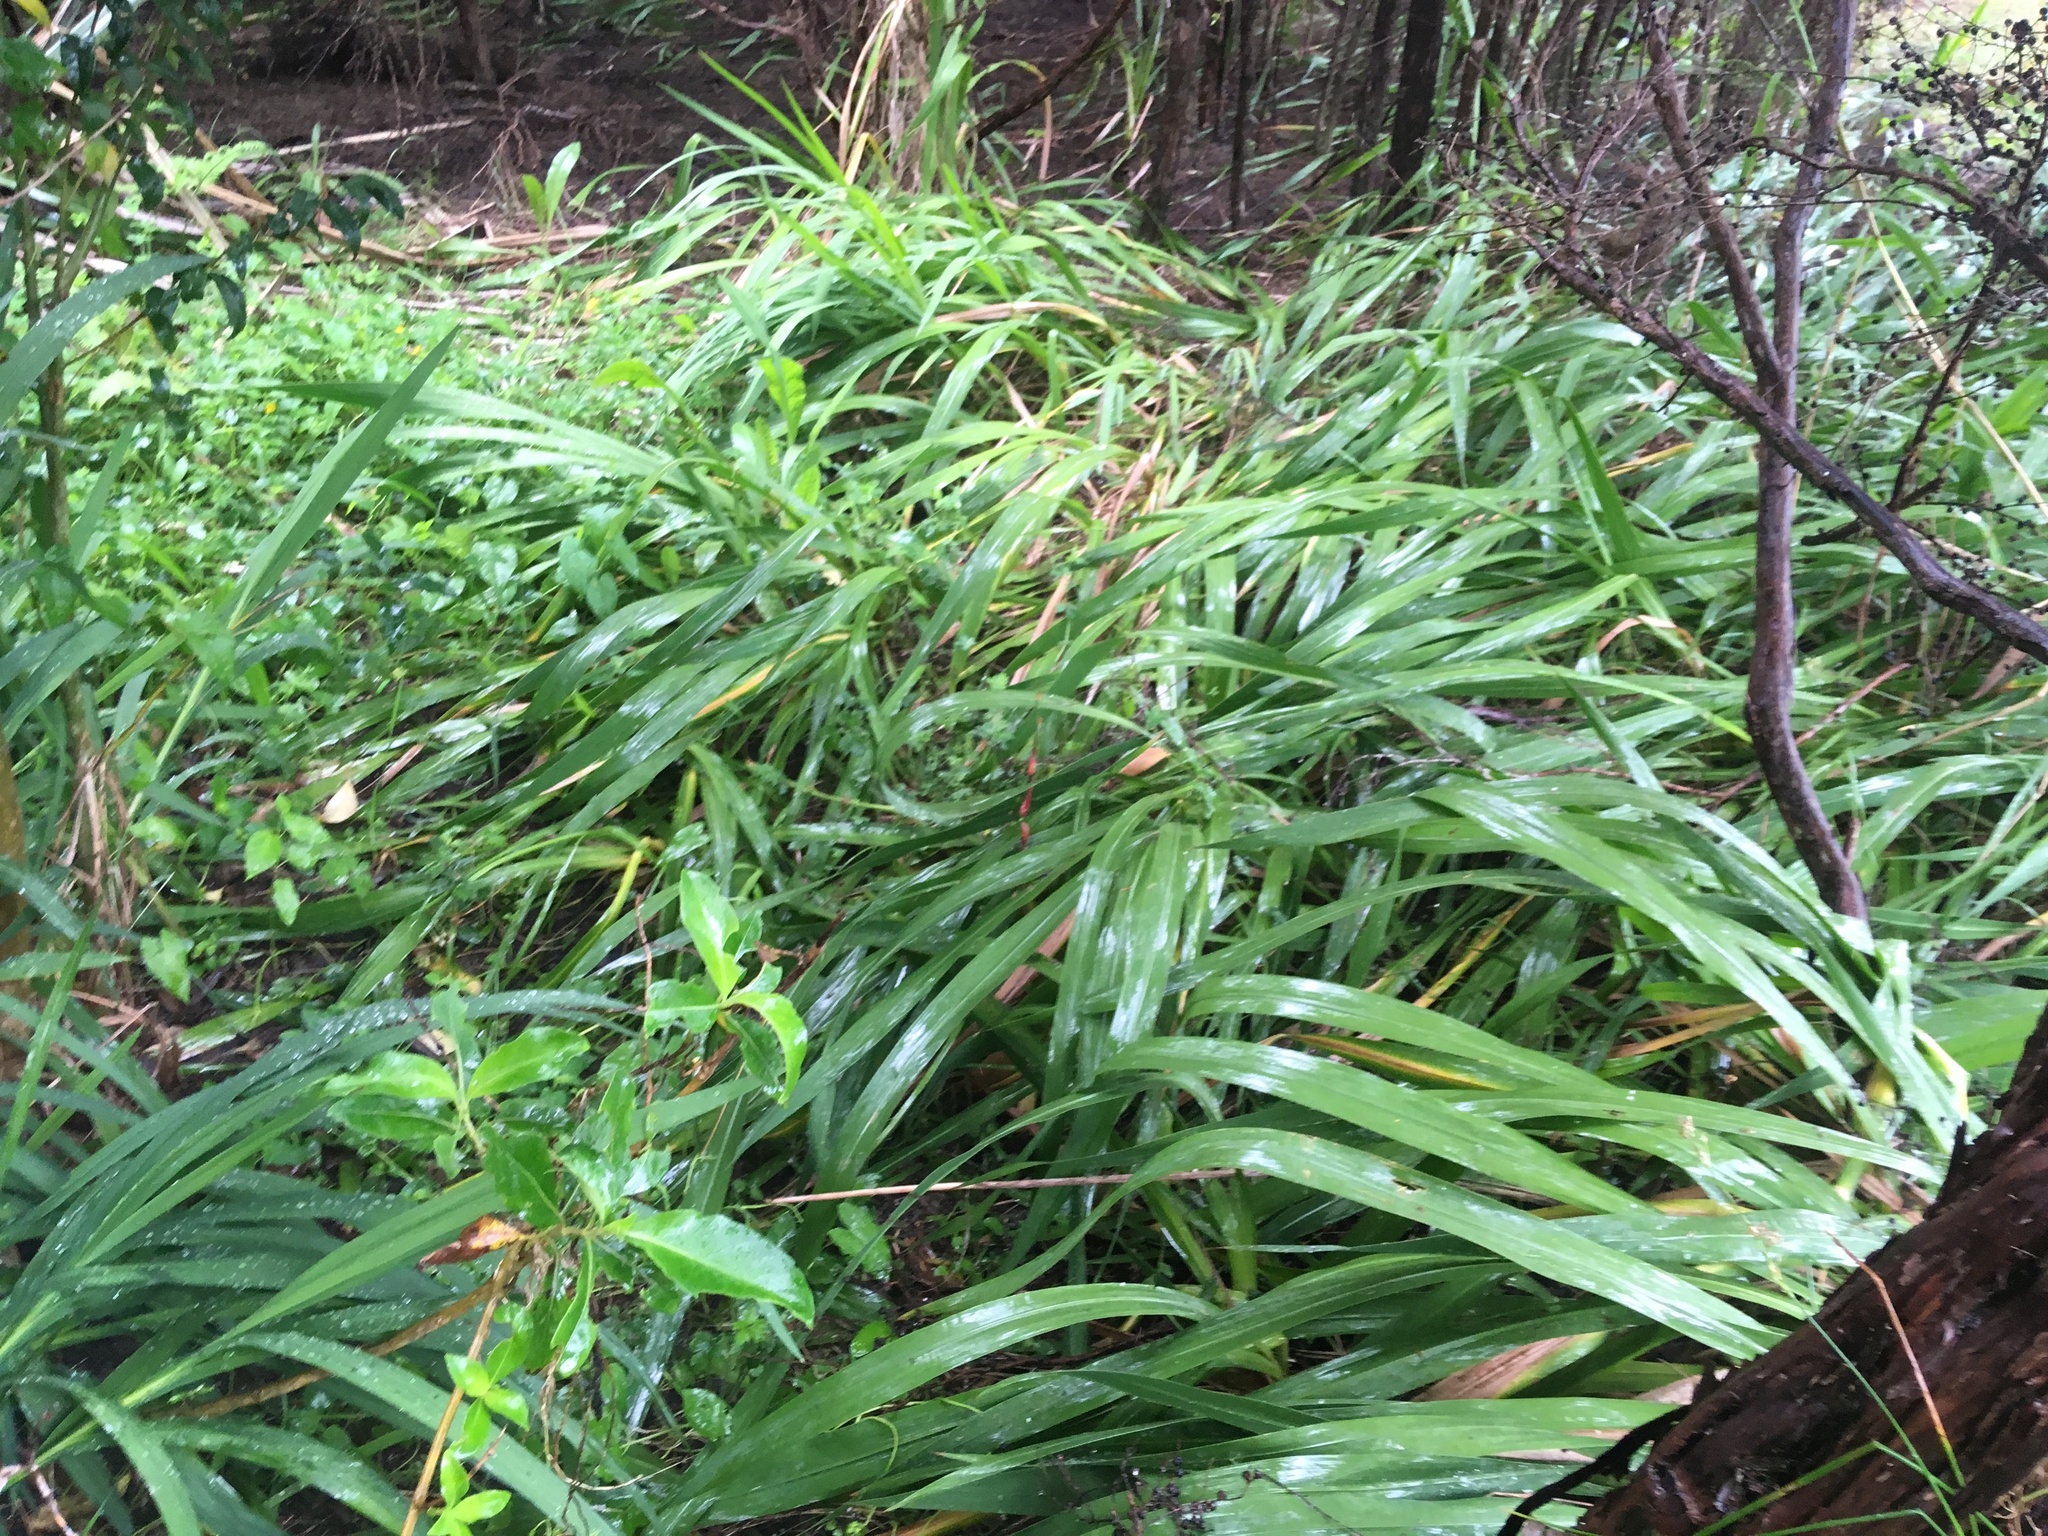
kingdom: Plantae
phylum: Tracheophyta
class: Liliopsida
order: Asparagales
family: Iridaceae
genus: Crocosmia
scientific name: Crocosmia crocosmiiflora
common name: Montbretia
